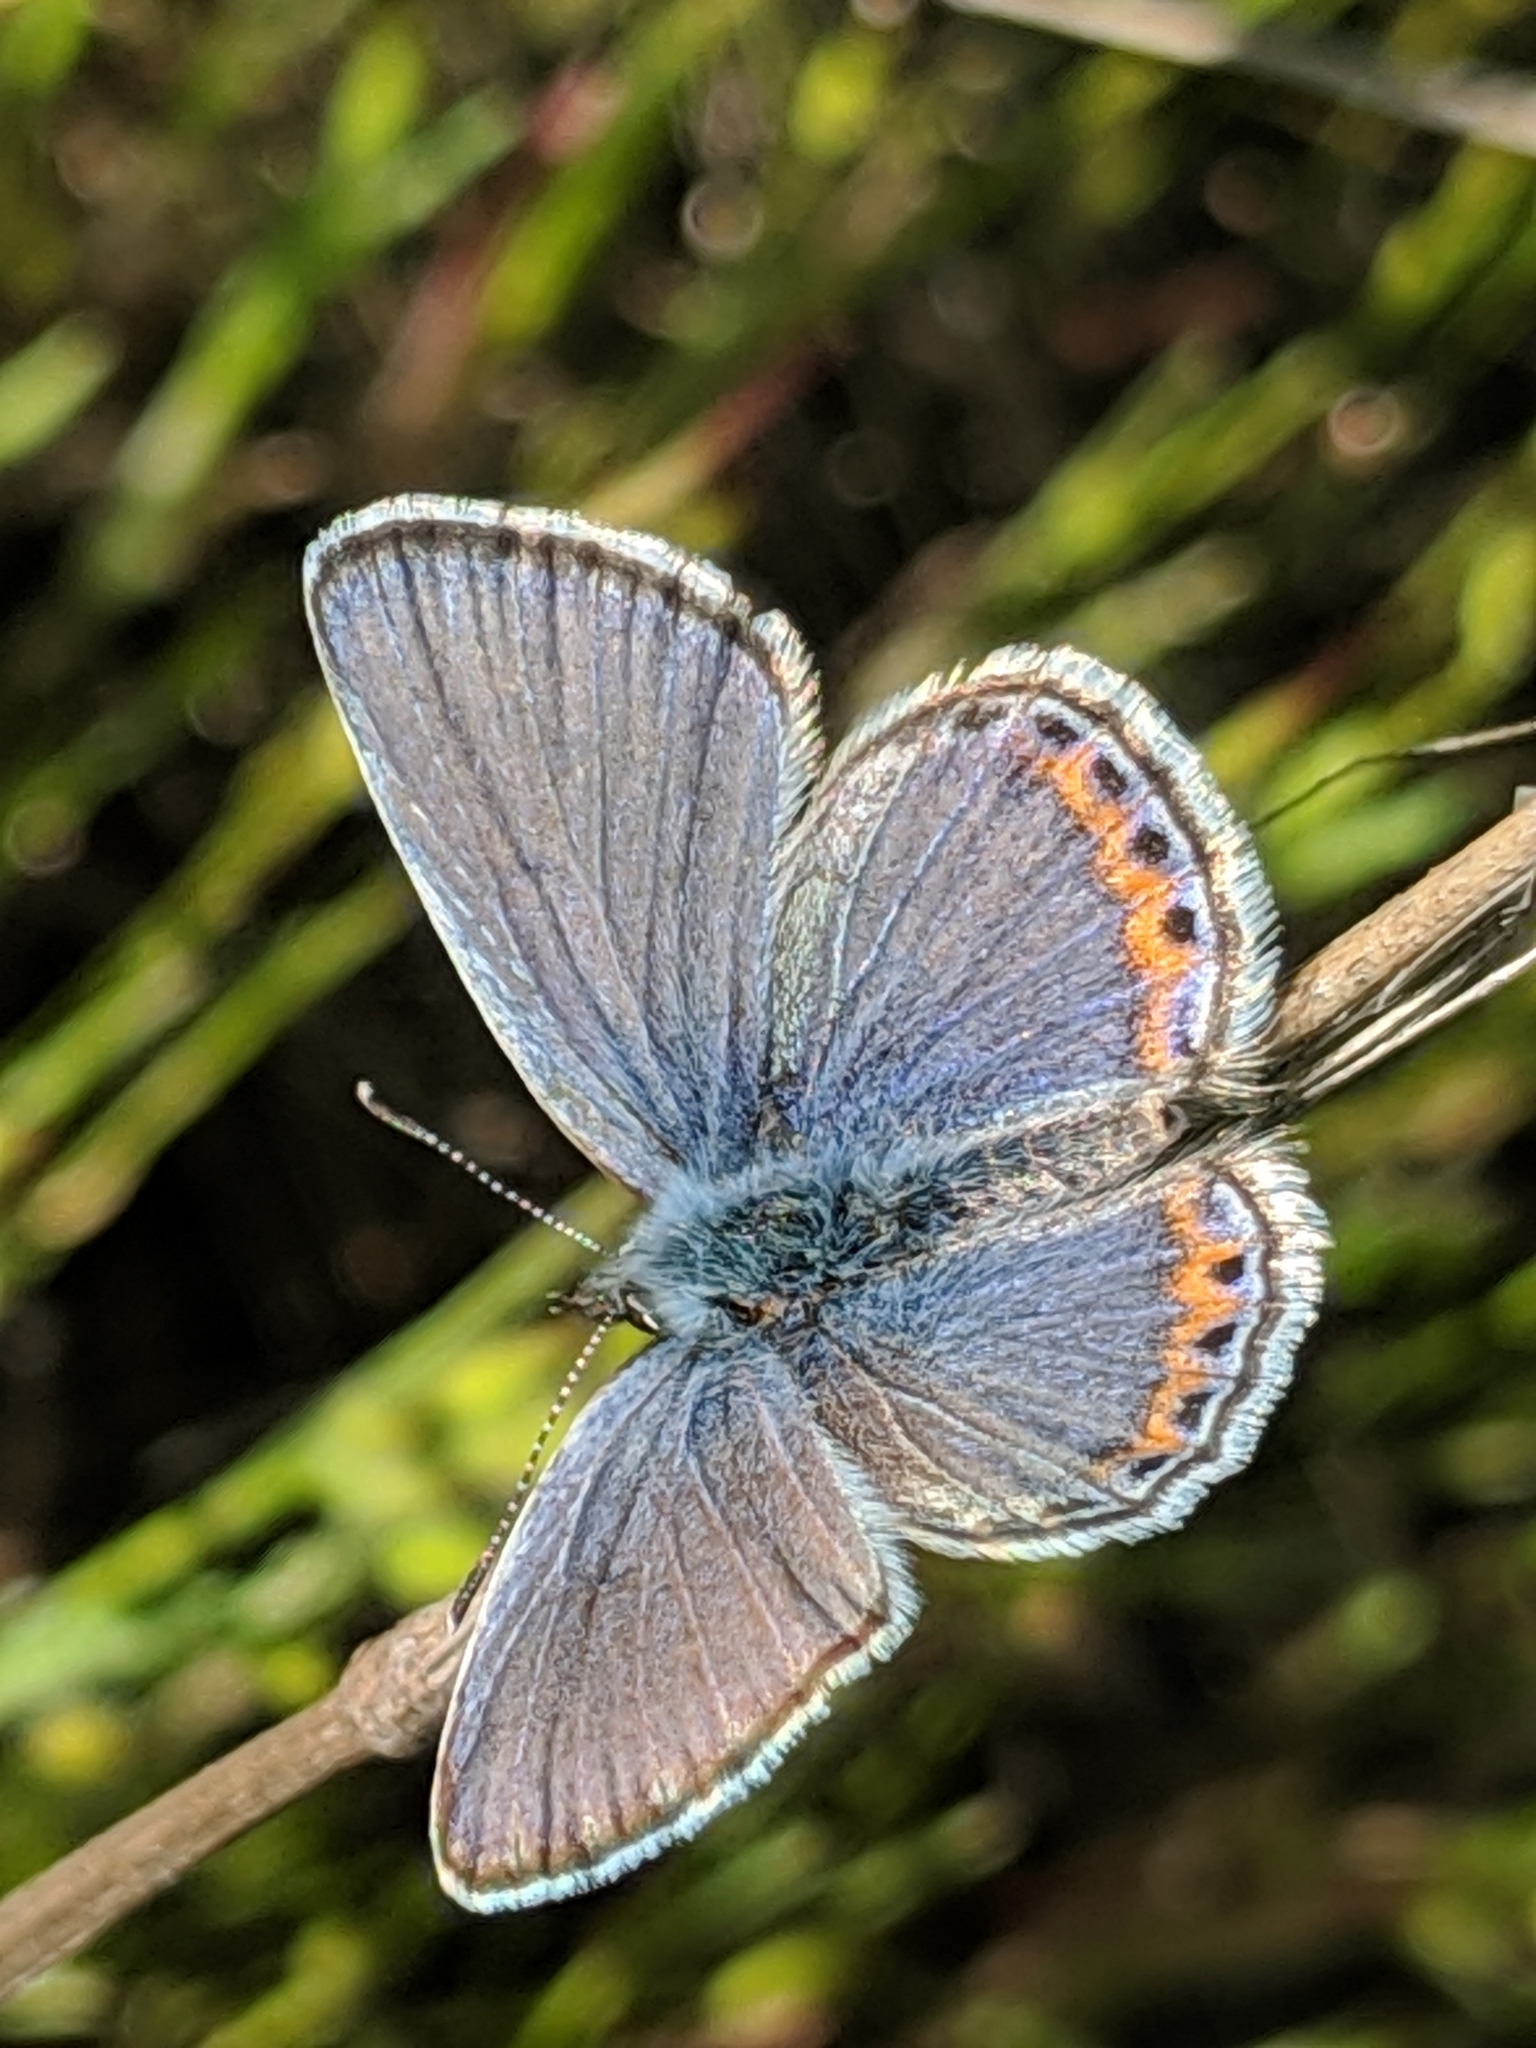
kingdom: Animalia
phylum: Arthropoda
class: Insecta
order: Lepidoptera
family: Lycaenidae
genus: Icaricia
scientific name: Icaricia acmon
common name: Acmon blue
